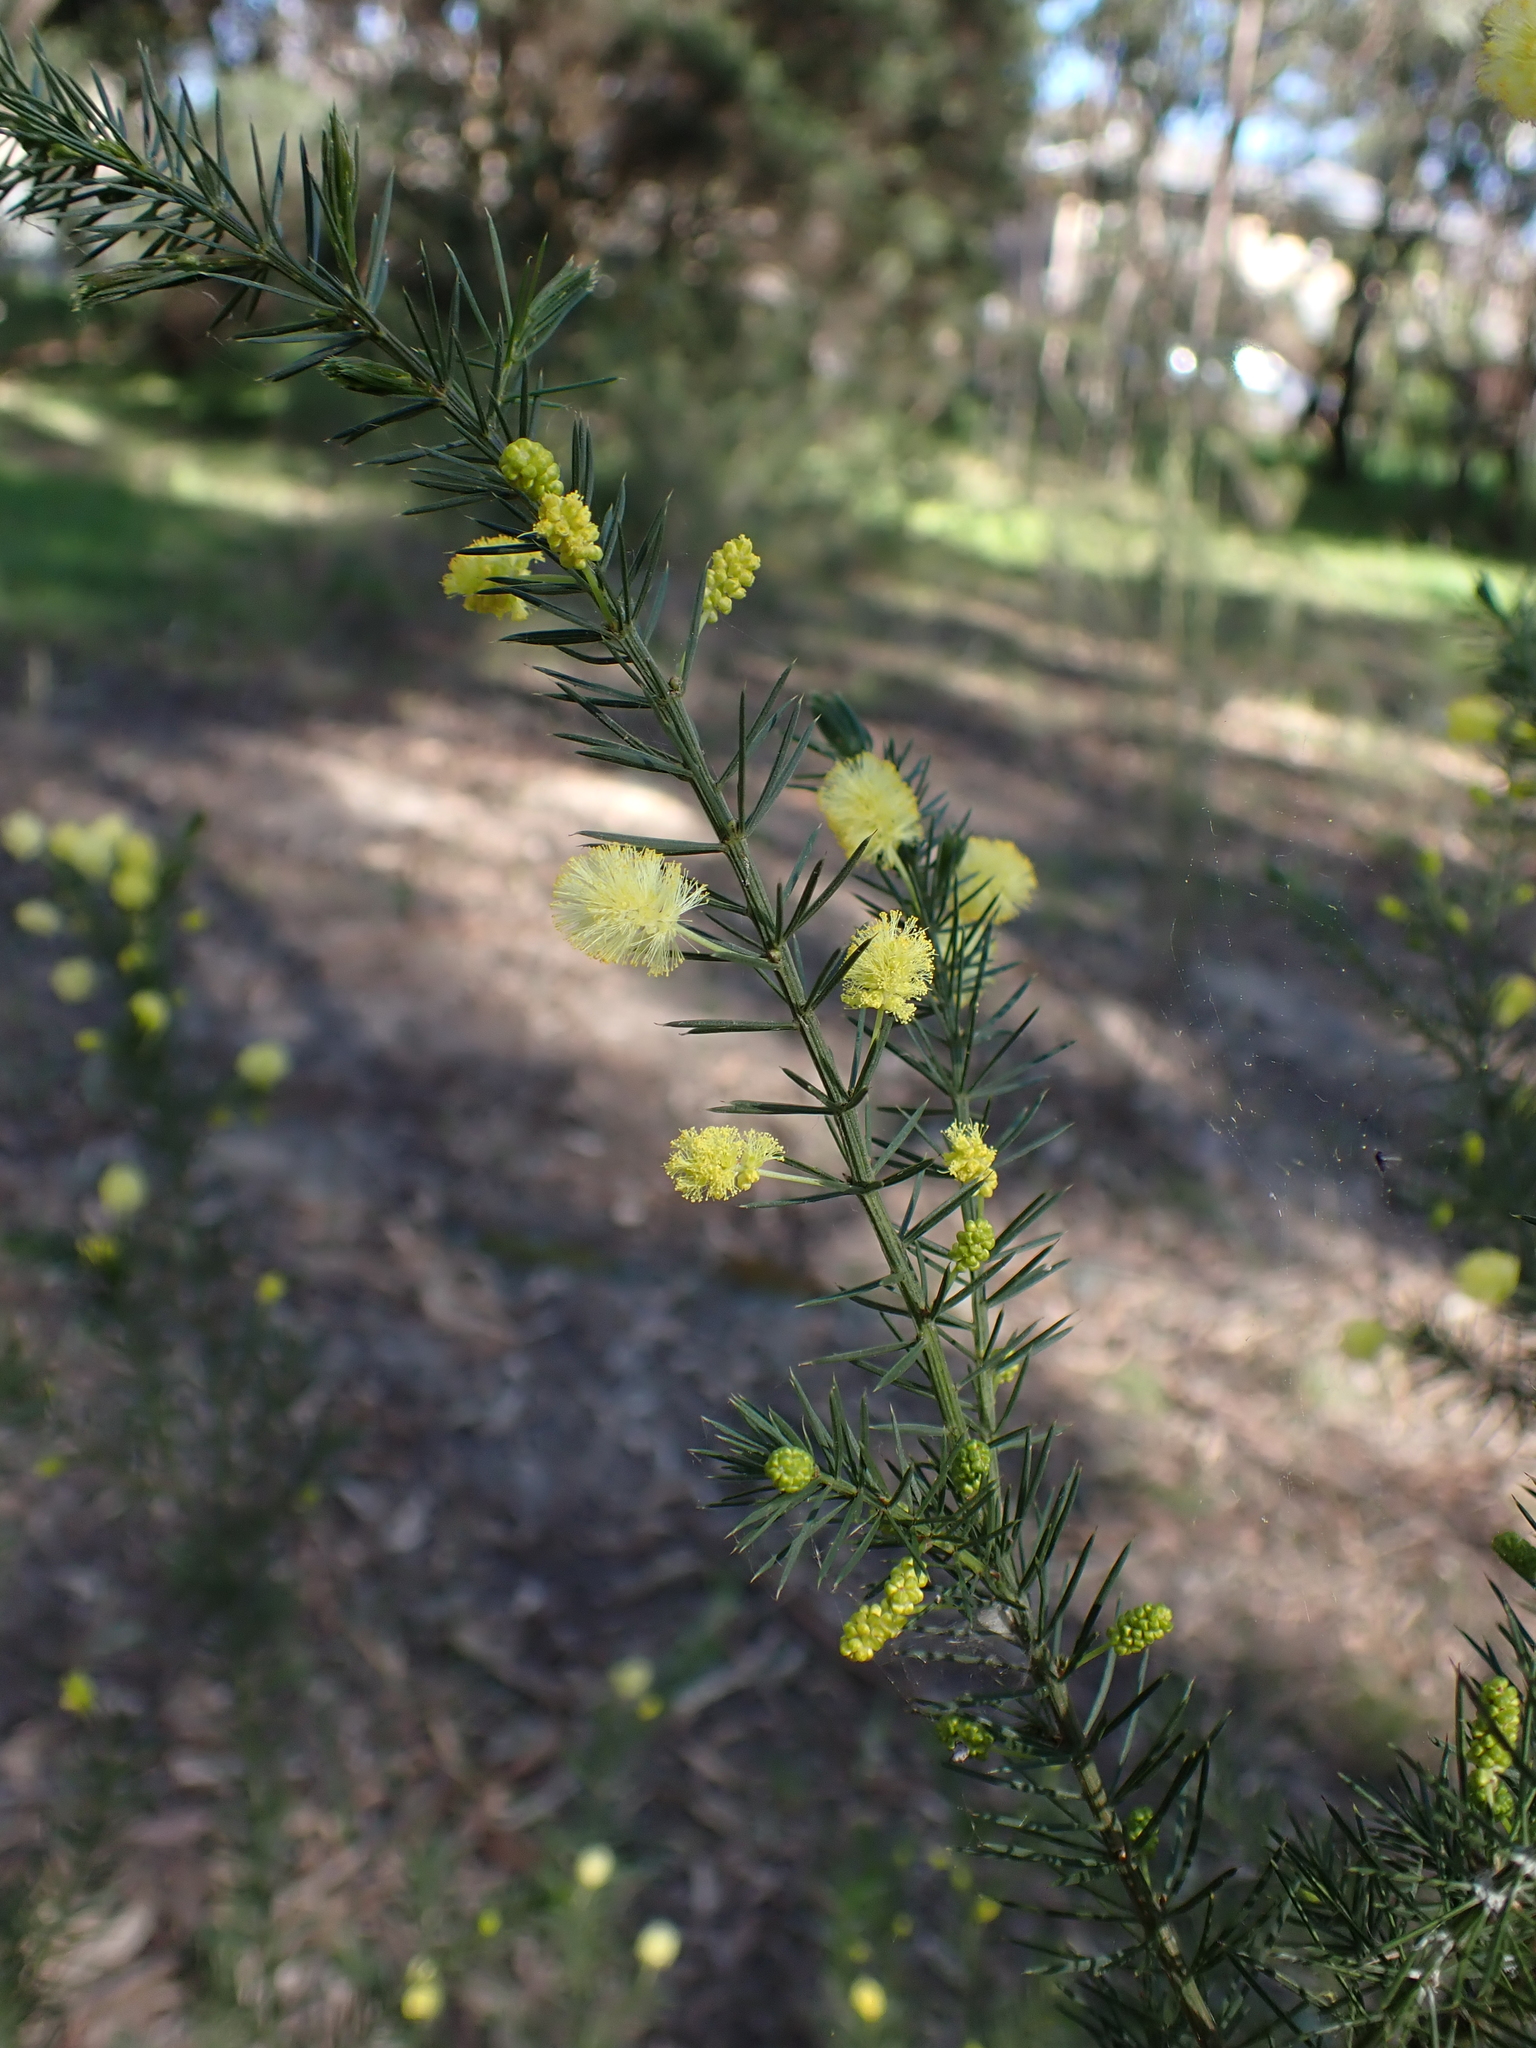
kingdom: Plantae
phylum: Tracheophyta
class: Magnoliopsida
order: Fabales
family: Fabaceae
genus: Acacia
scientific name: Acacia verticillata
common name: Prickly moses
